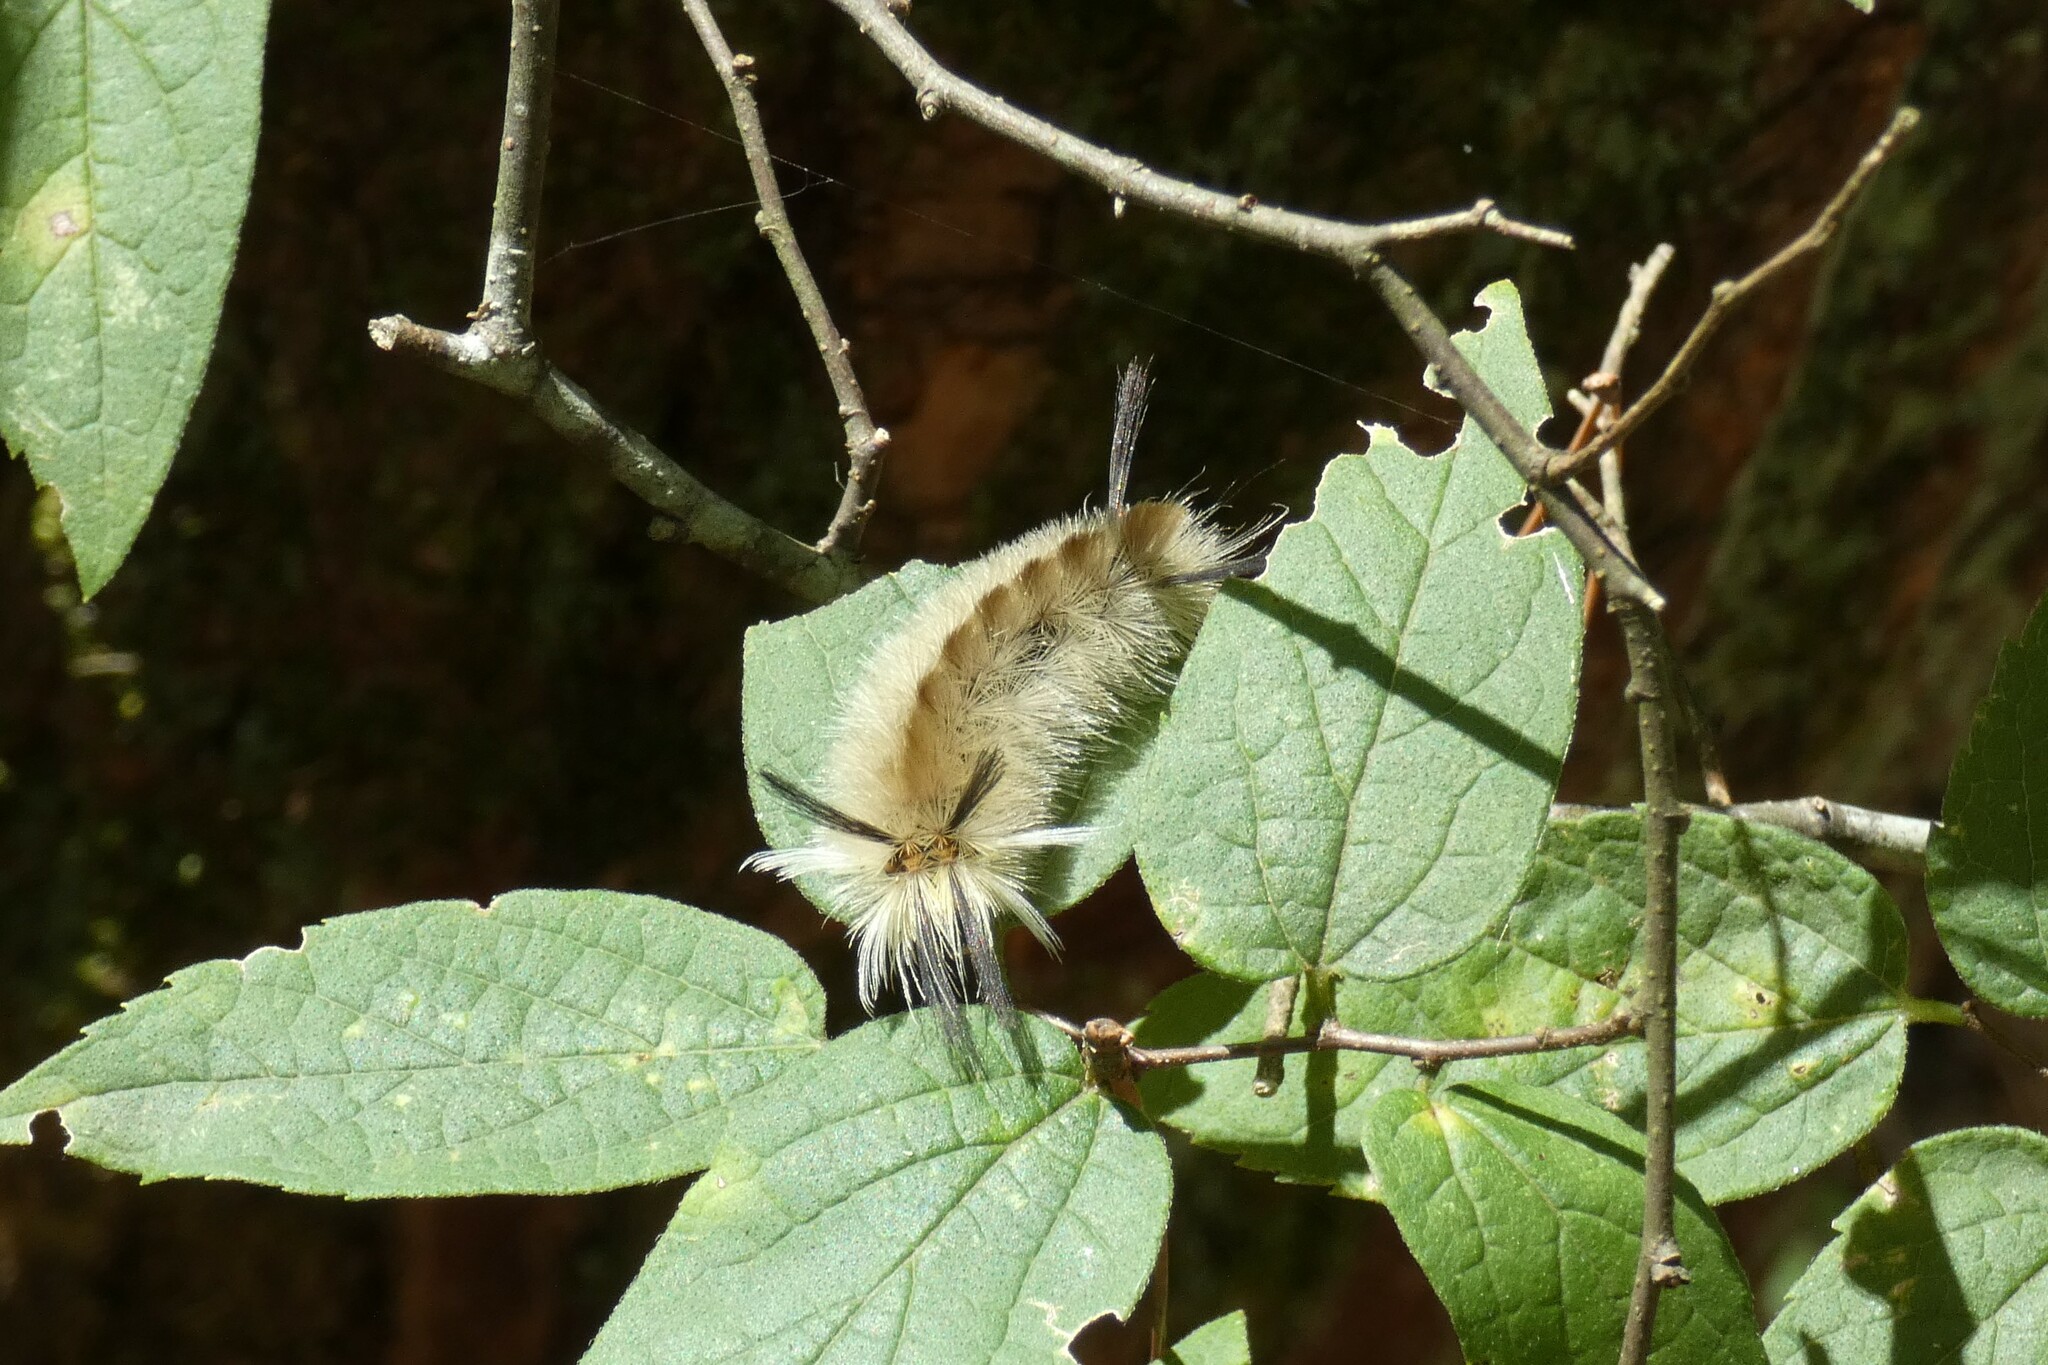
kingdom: Animalia
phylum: Arthropoda
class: Insecta
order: Lepidoptera
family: Erebidae
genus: Halysidota
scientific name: Halysidota tessellaris
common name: Banded tussock moth
